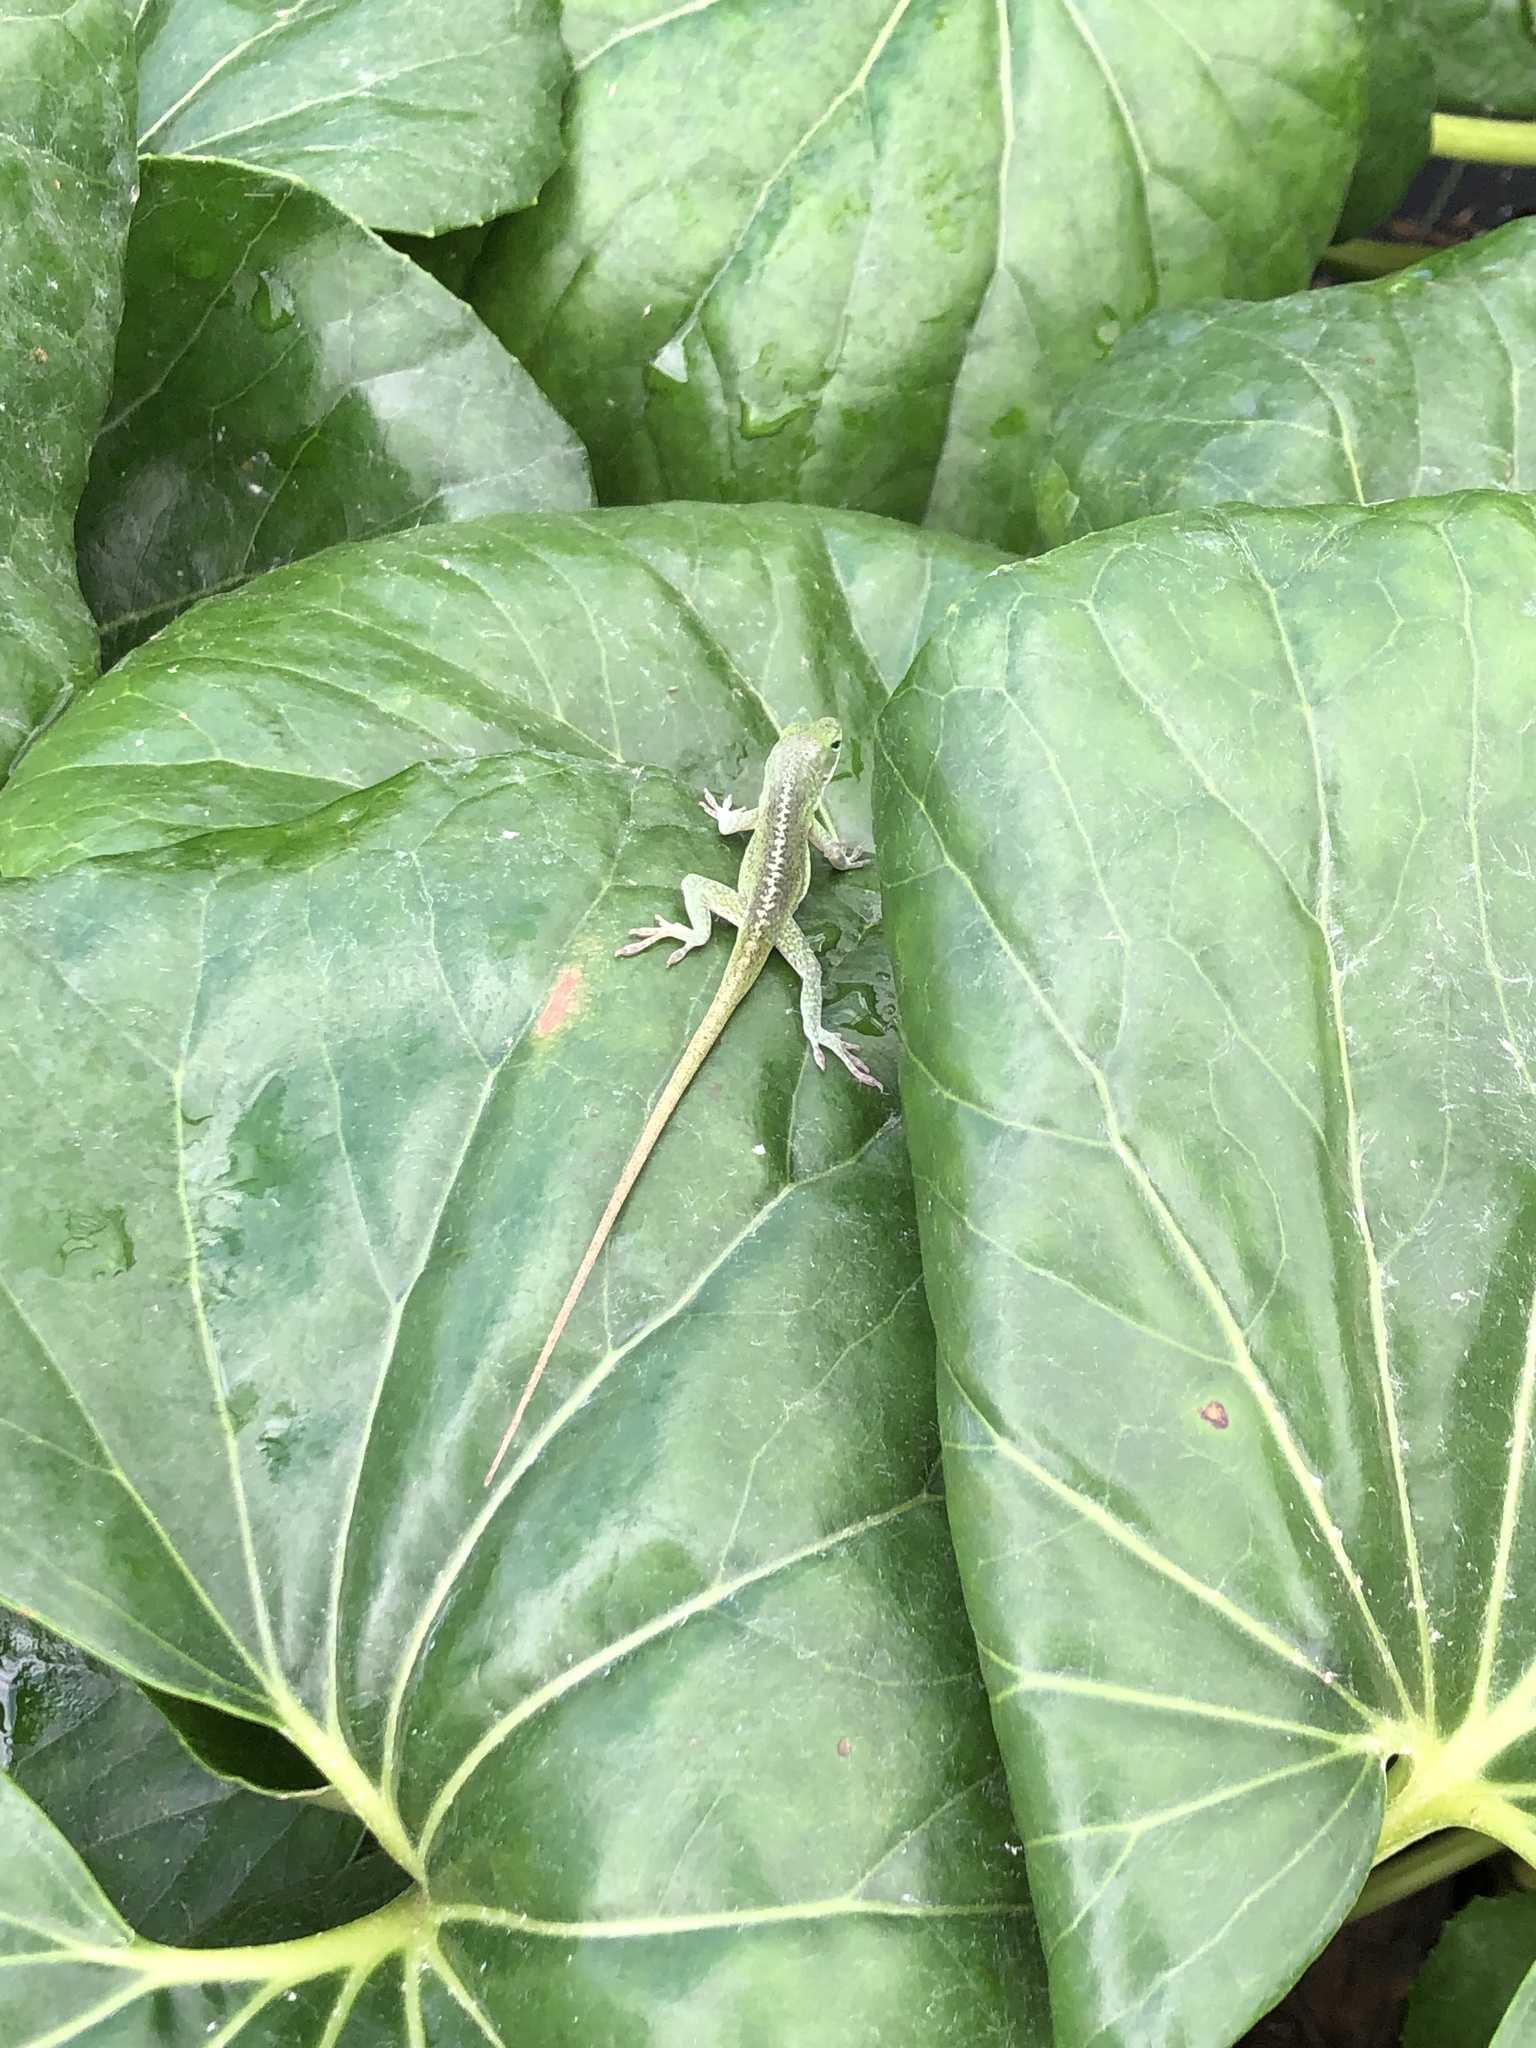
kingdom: Animalia
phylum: Chordata
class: Squamata
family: Dactyloidae
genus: Anolis
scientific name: Anolis carolinensis
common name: Green anole
